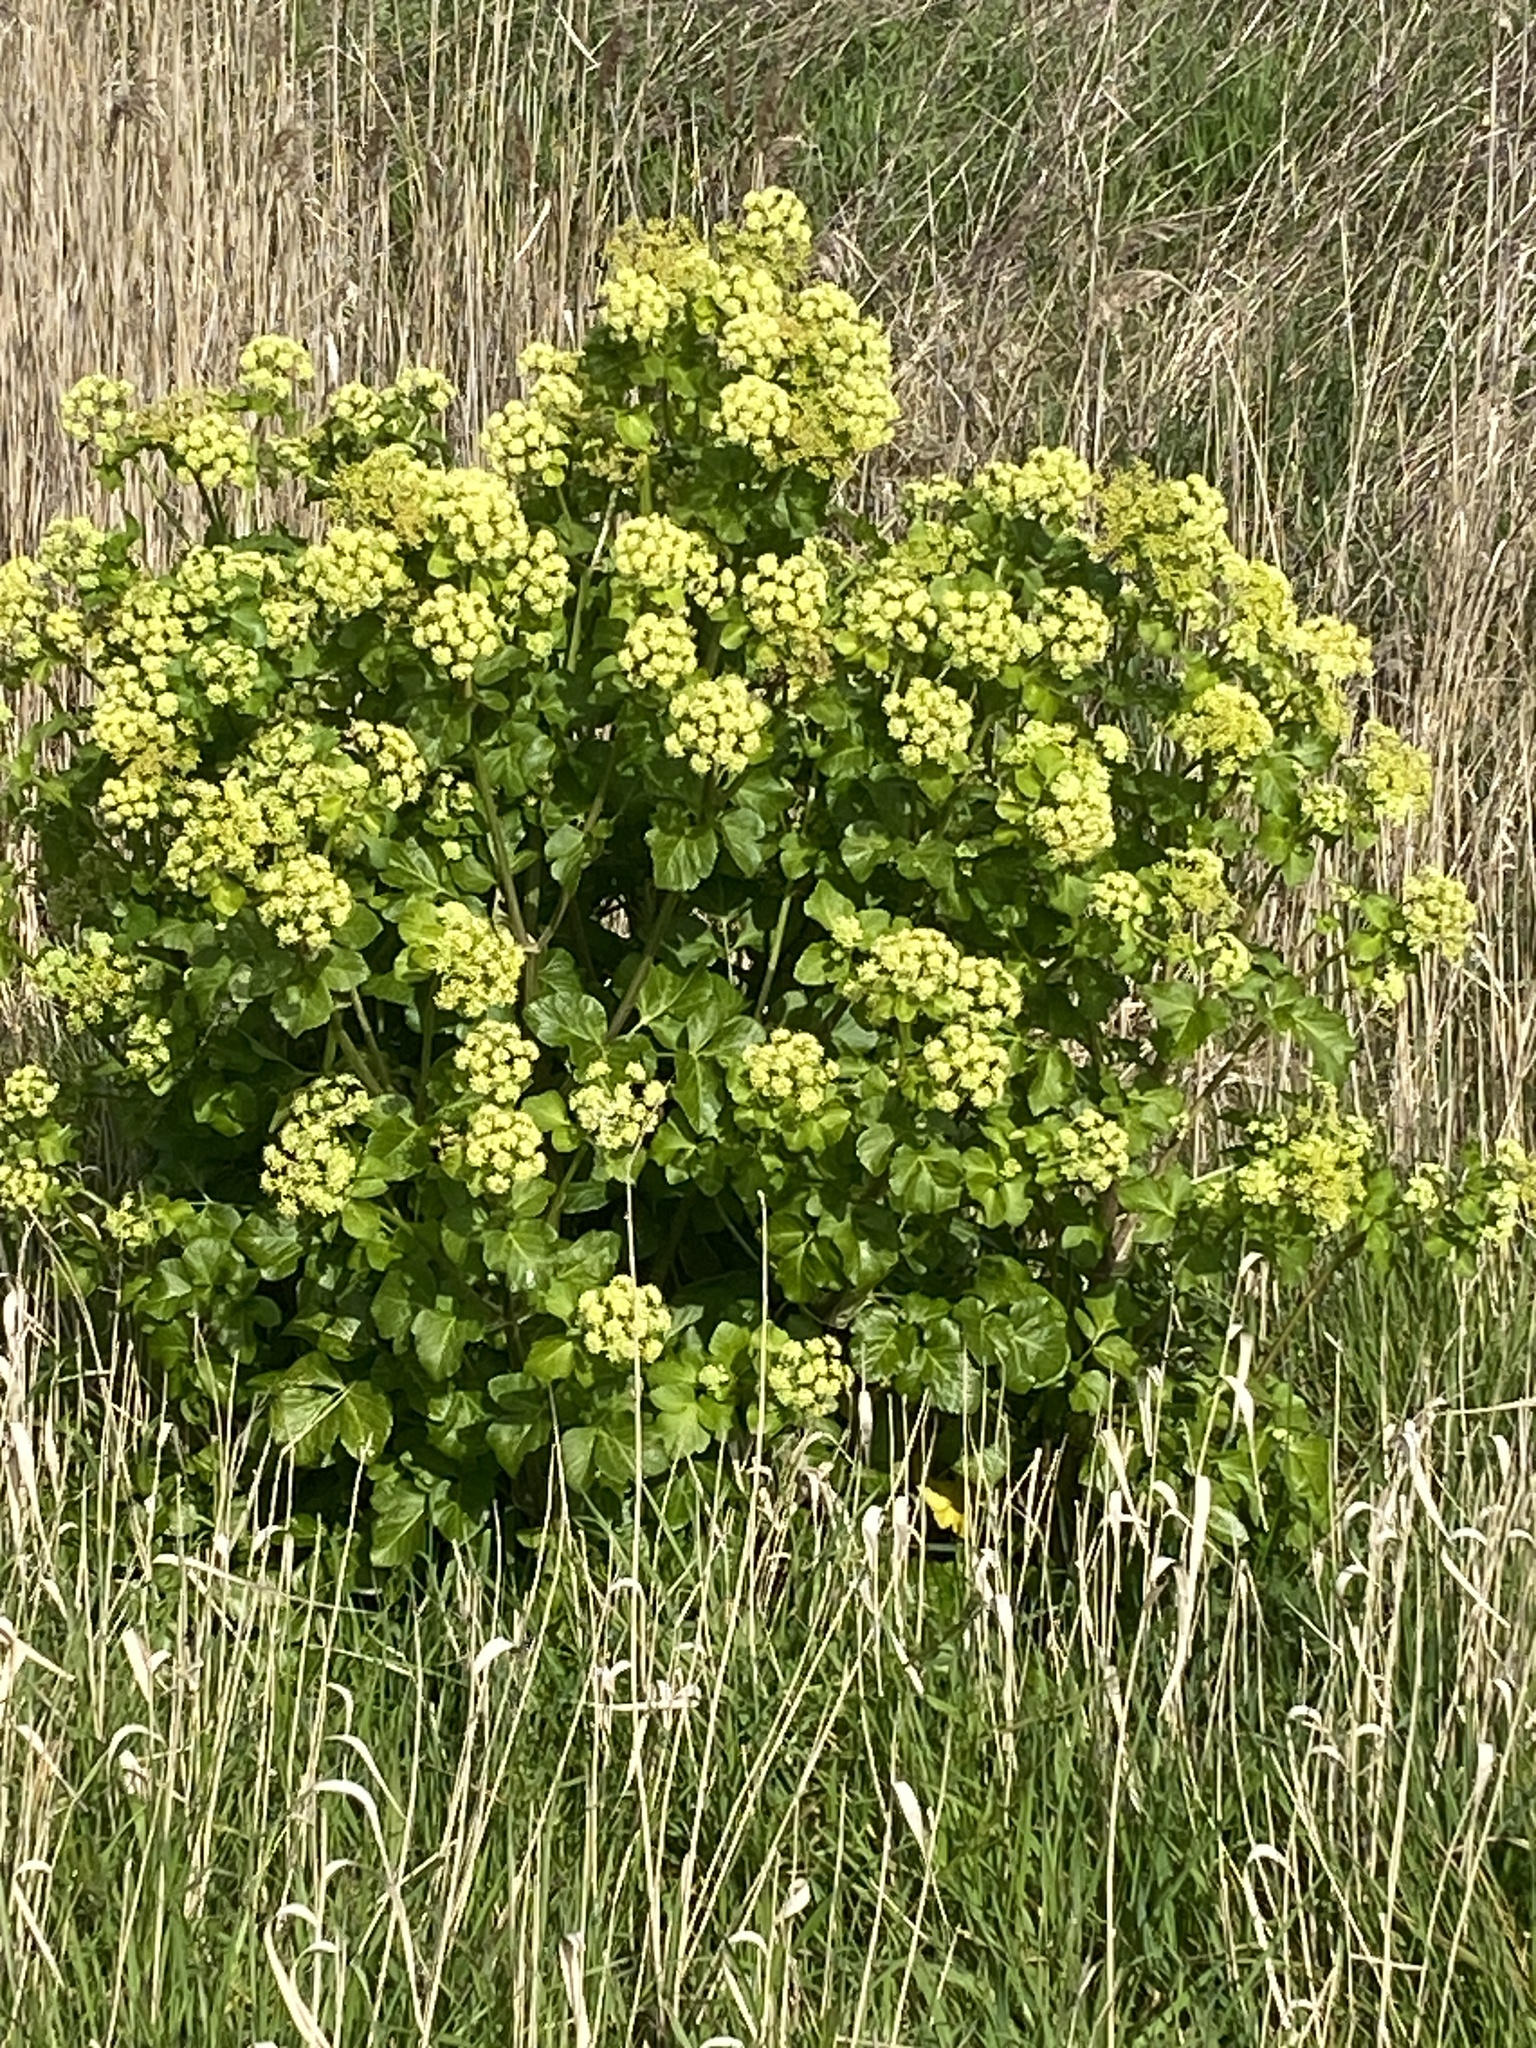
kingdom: Plantae
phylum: Tracheophyta
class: Magnoliopsida
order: Apiales
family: Apiaceae
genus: Smyrnium
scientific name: Smyrnium olusatrum
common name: Alexanders
